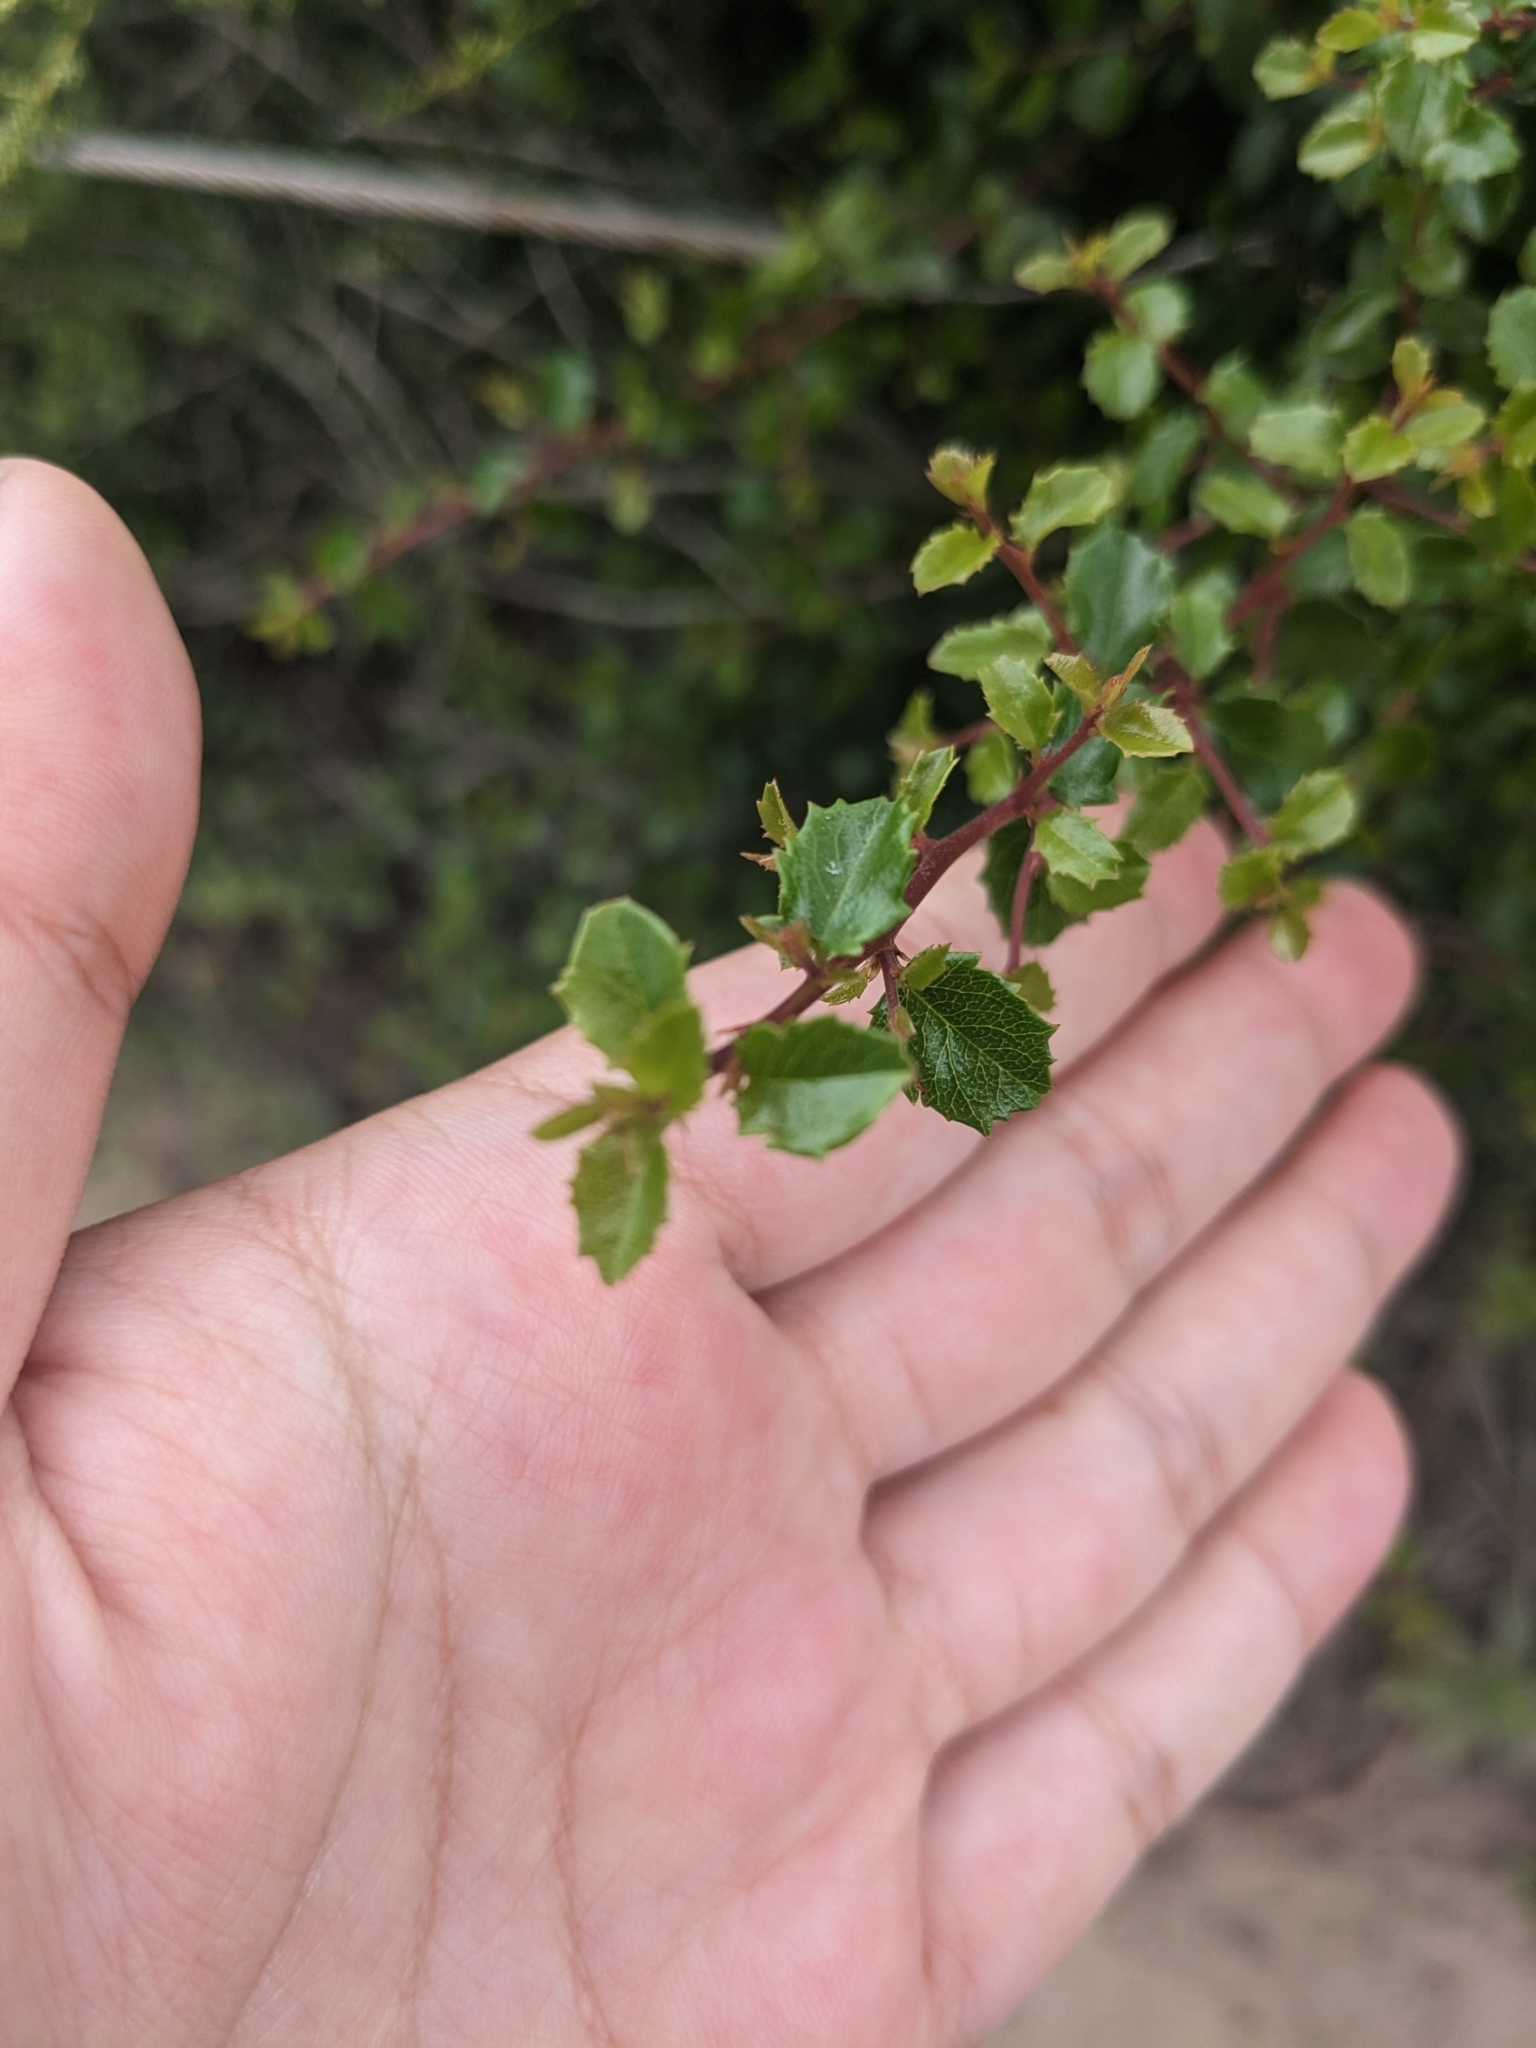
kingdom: Plantae
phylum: Tracheophyta
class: Magnoliopsida
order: Rosales
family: Rhamnaceae
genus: Endotropis
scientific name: Endotropis crocea
